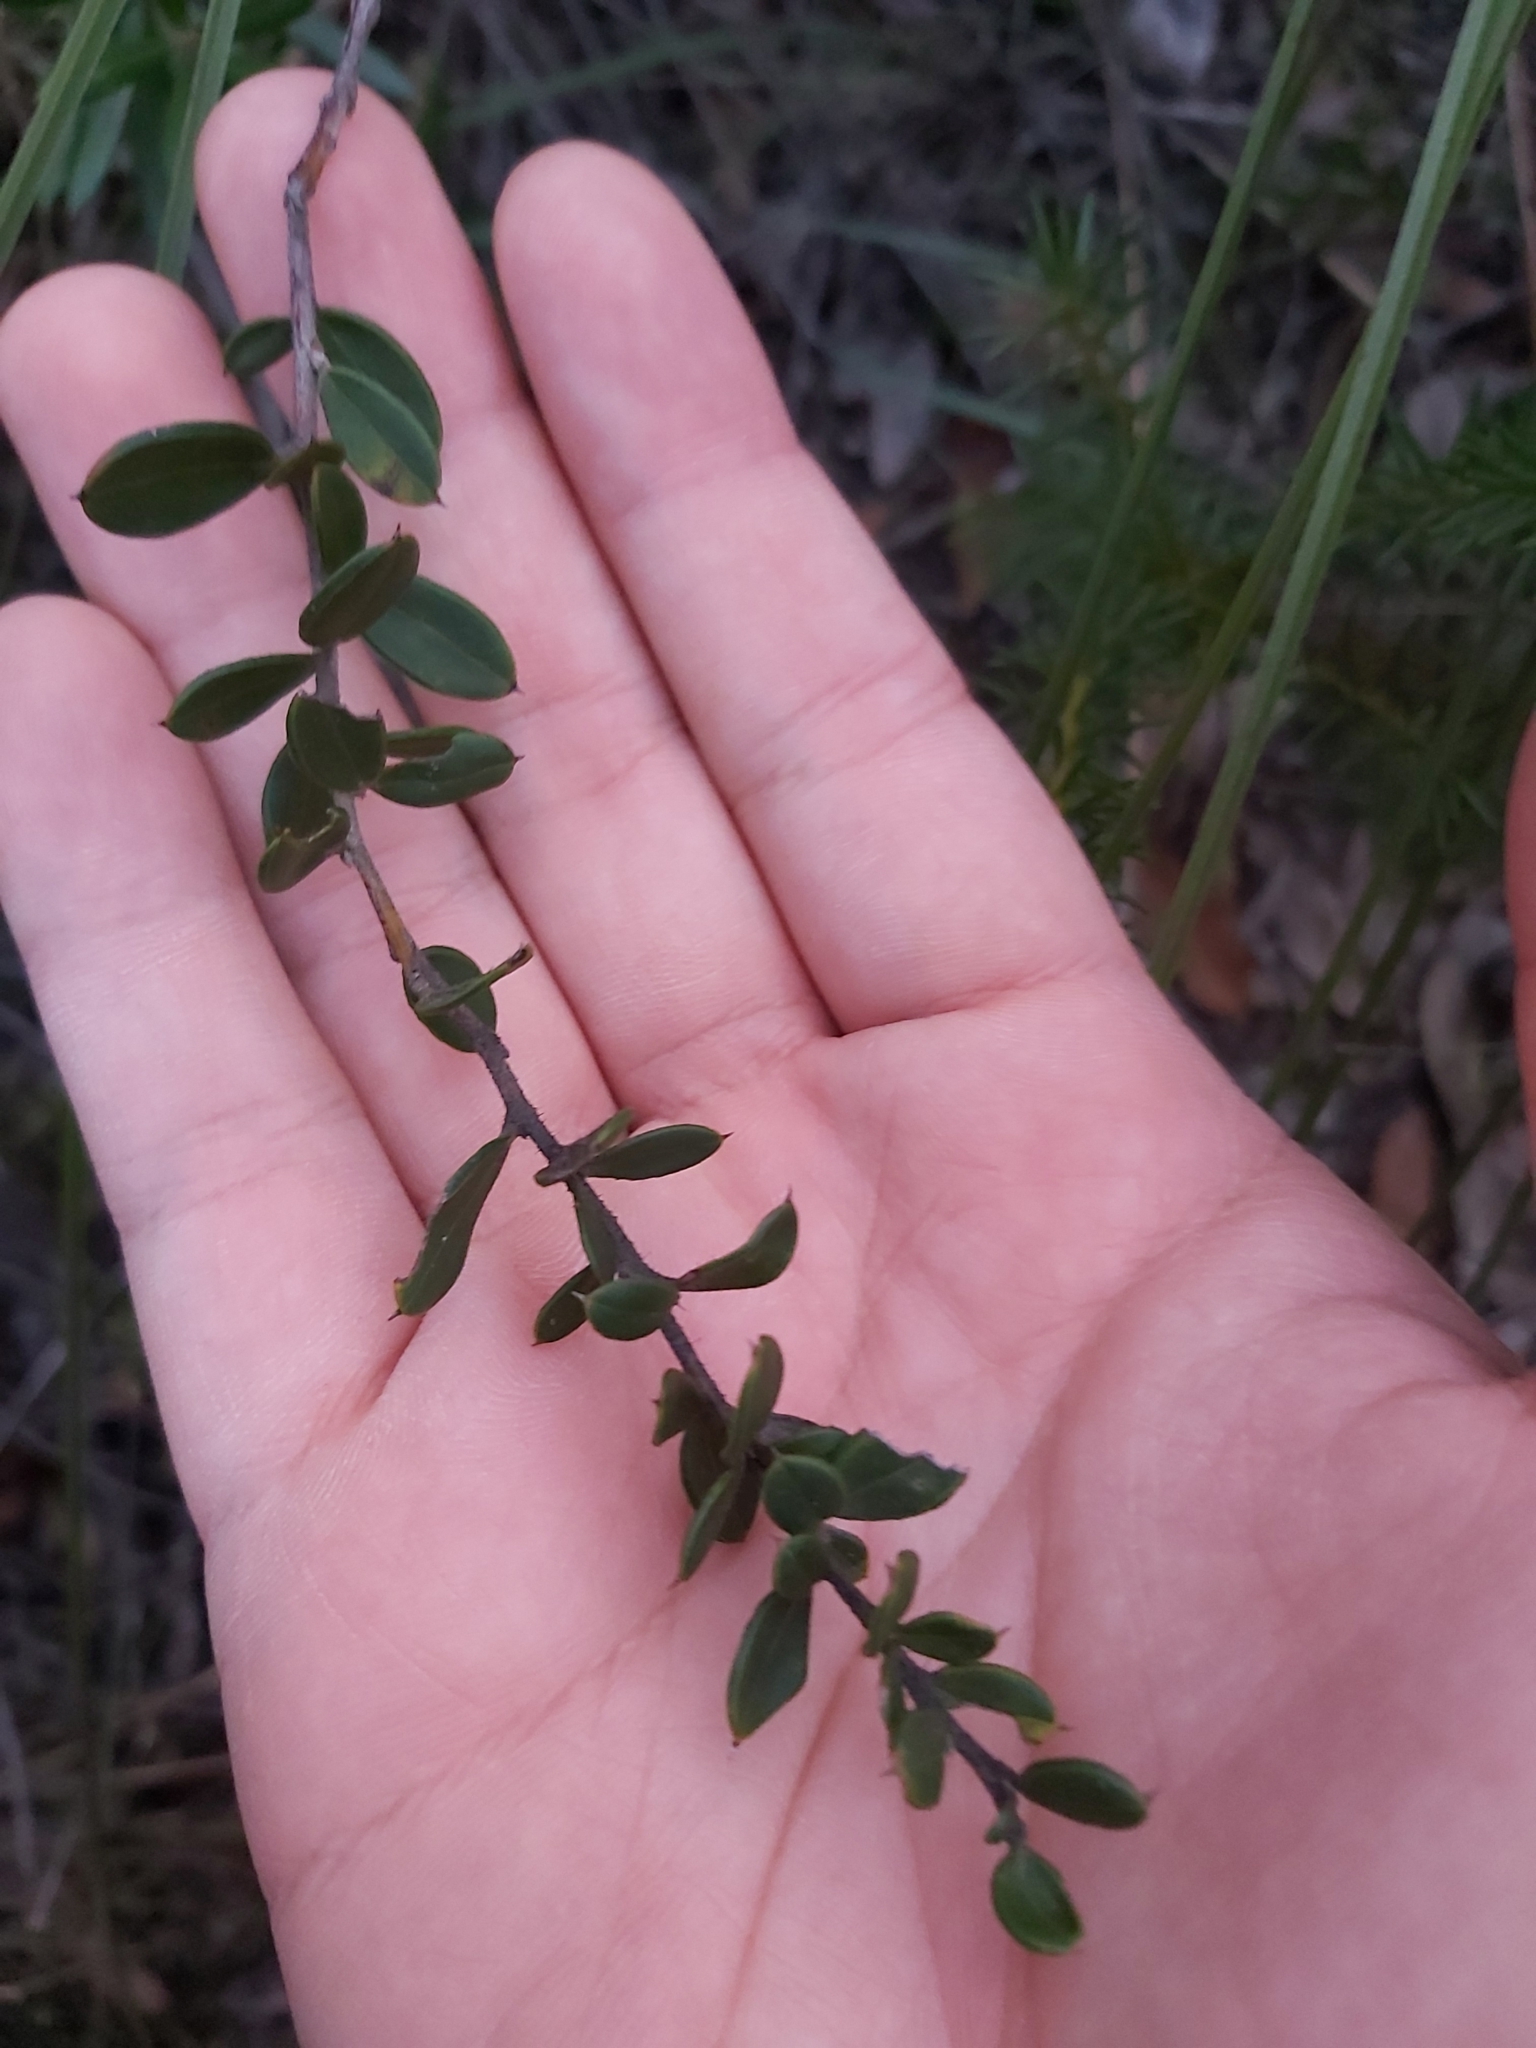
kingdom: Plantae
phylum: Tracheophyta
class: Magnoliopsida
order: Proteales
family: Proteaceae
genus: Grevillea
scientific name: Grevillea speciosa
